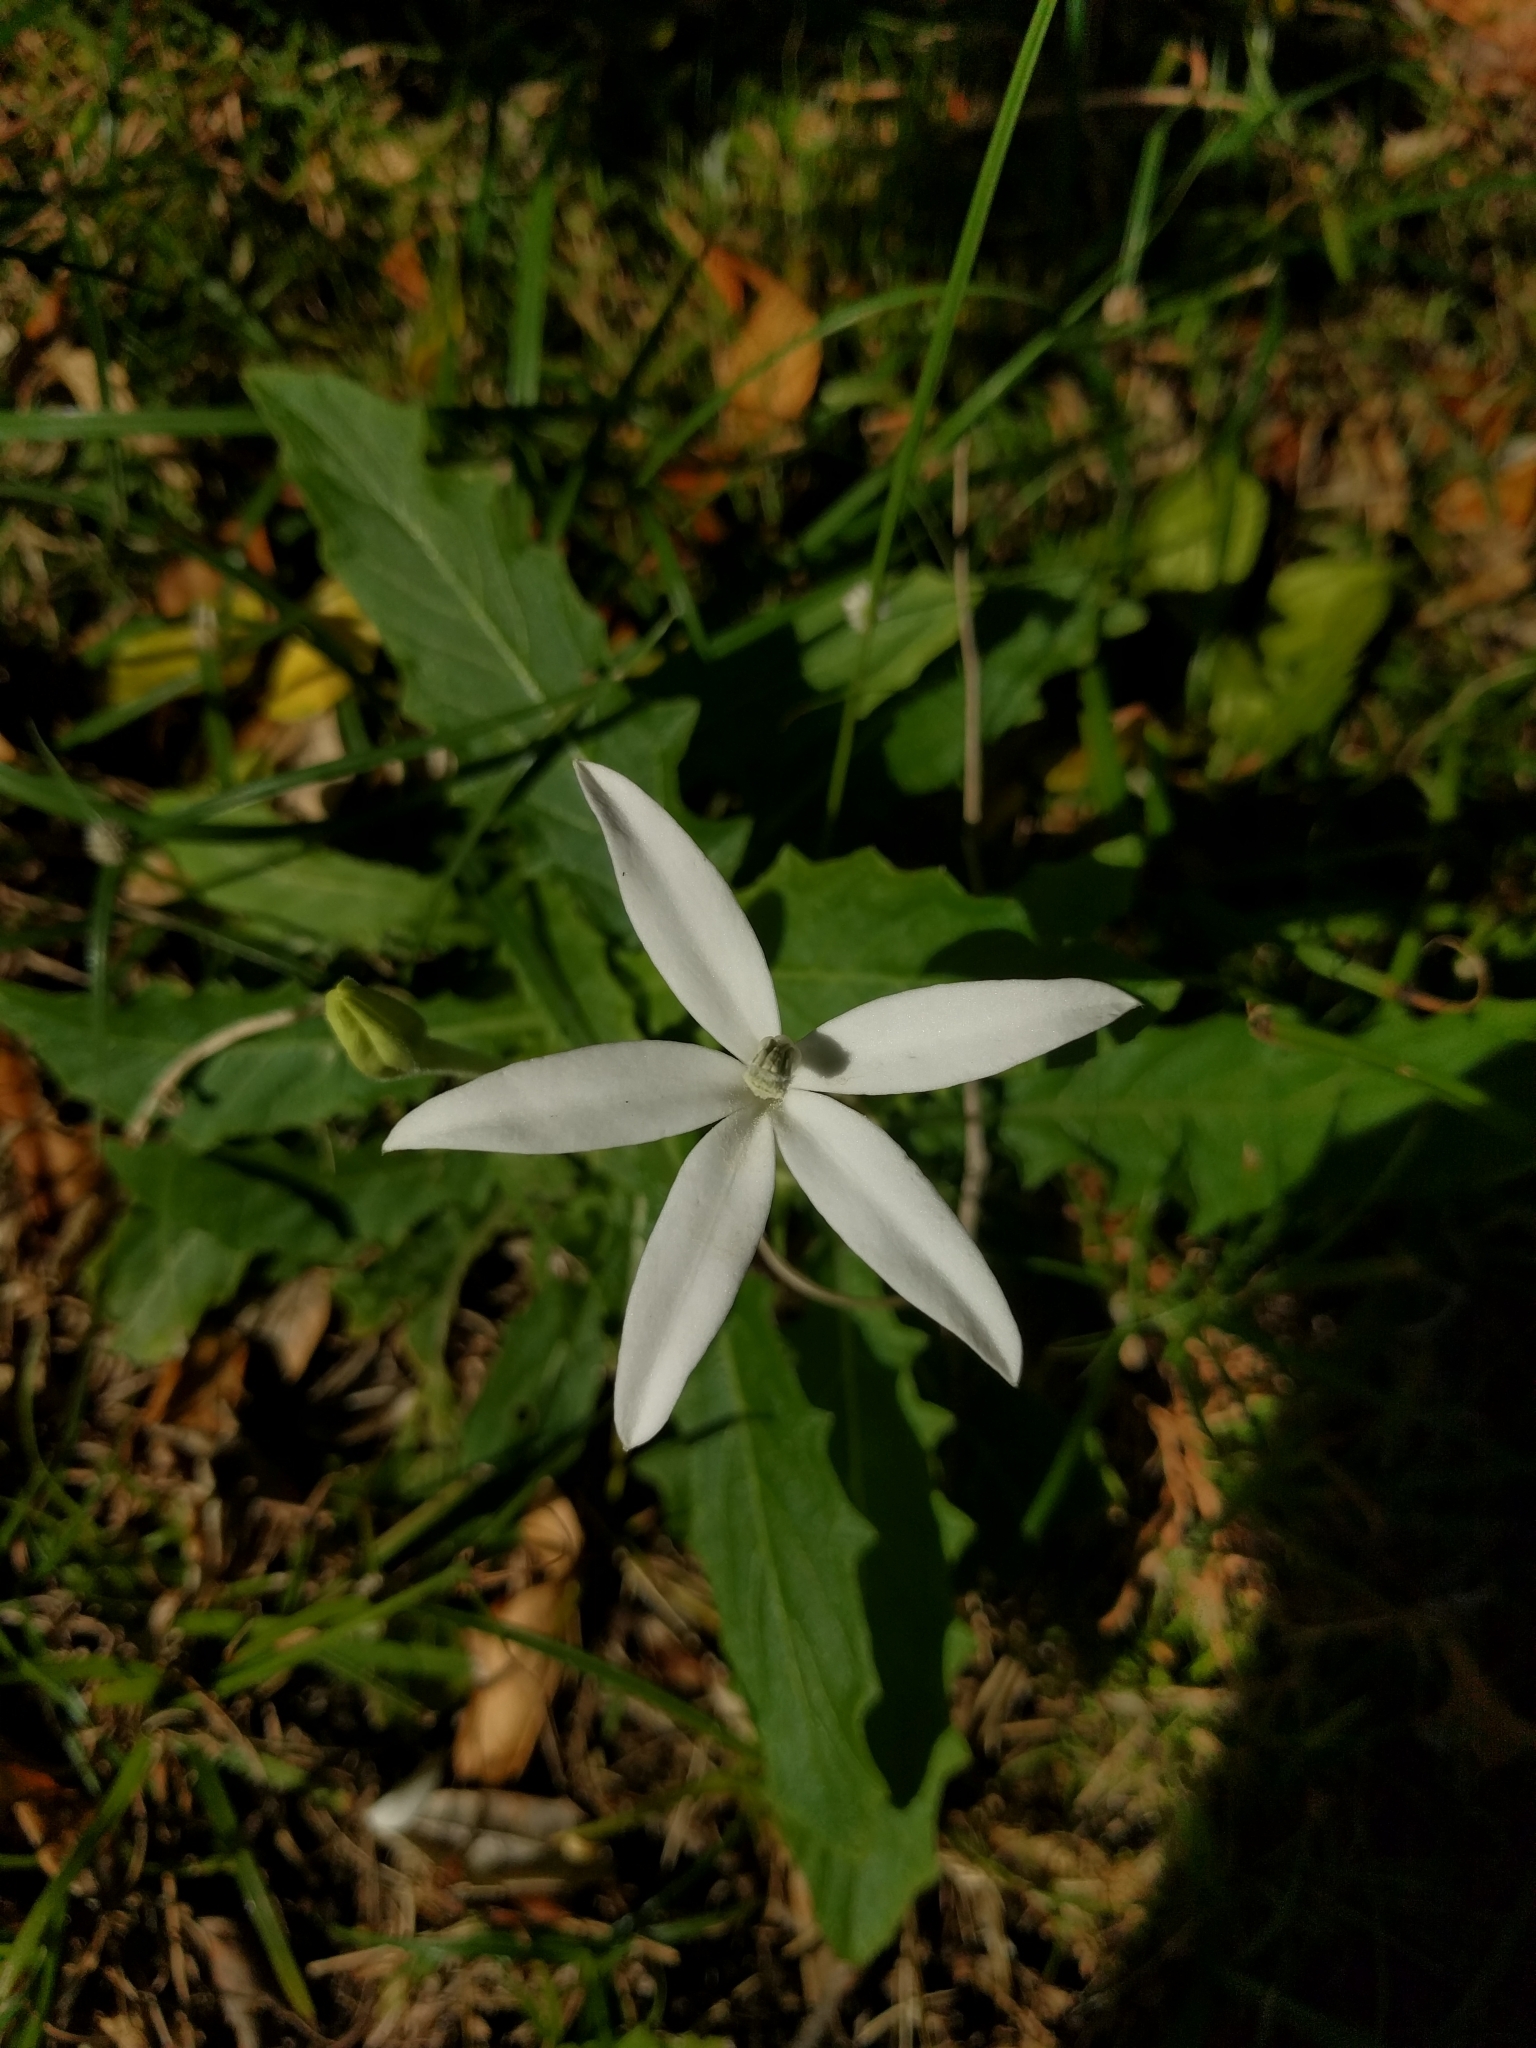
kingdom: Plantae
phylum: Tracheophyta
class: Magnoliopsida
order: Asterales
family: Campanulaceae
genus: Hippobroma
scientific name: Hippobroma longiflora
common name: Madamfate
